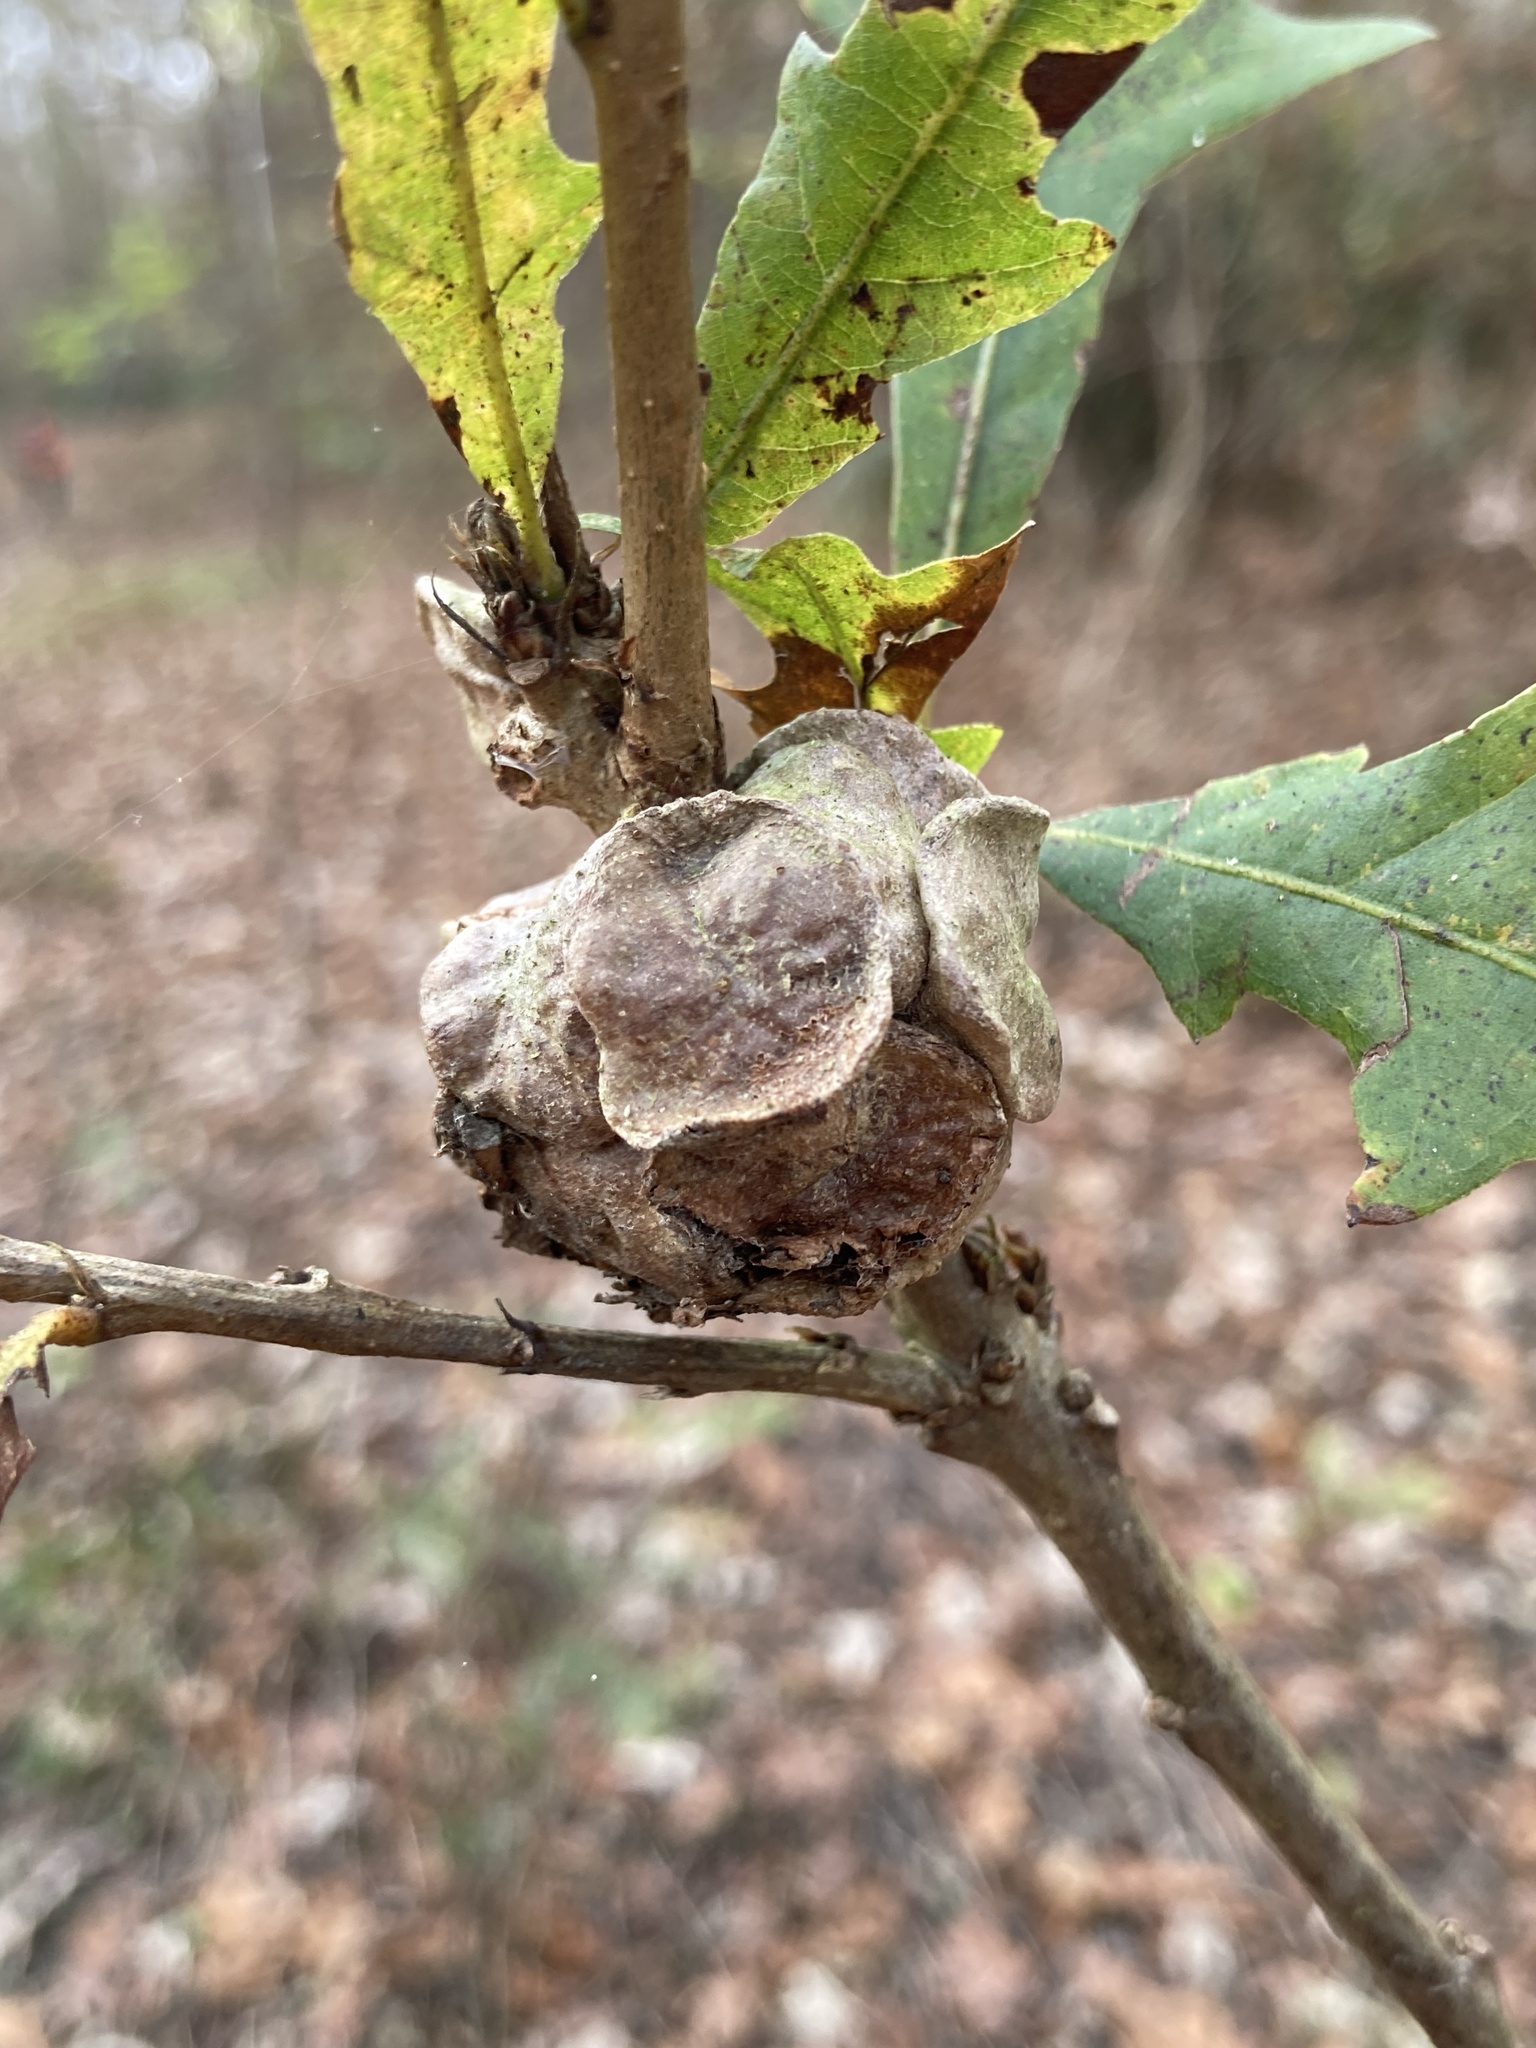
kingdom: Animalia
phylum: Arthropoda
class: Insecta
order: Hymenoptera
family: Cynipidae
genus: Andricus
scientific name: Andricus
